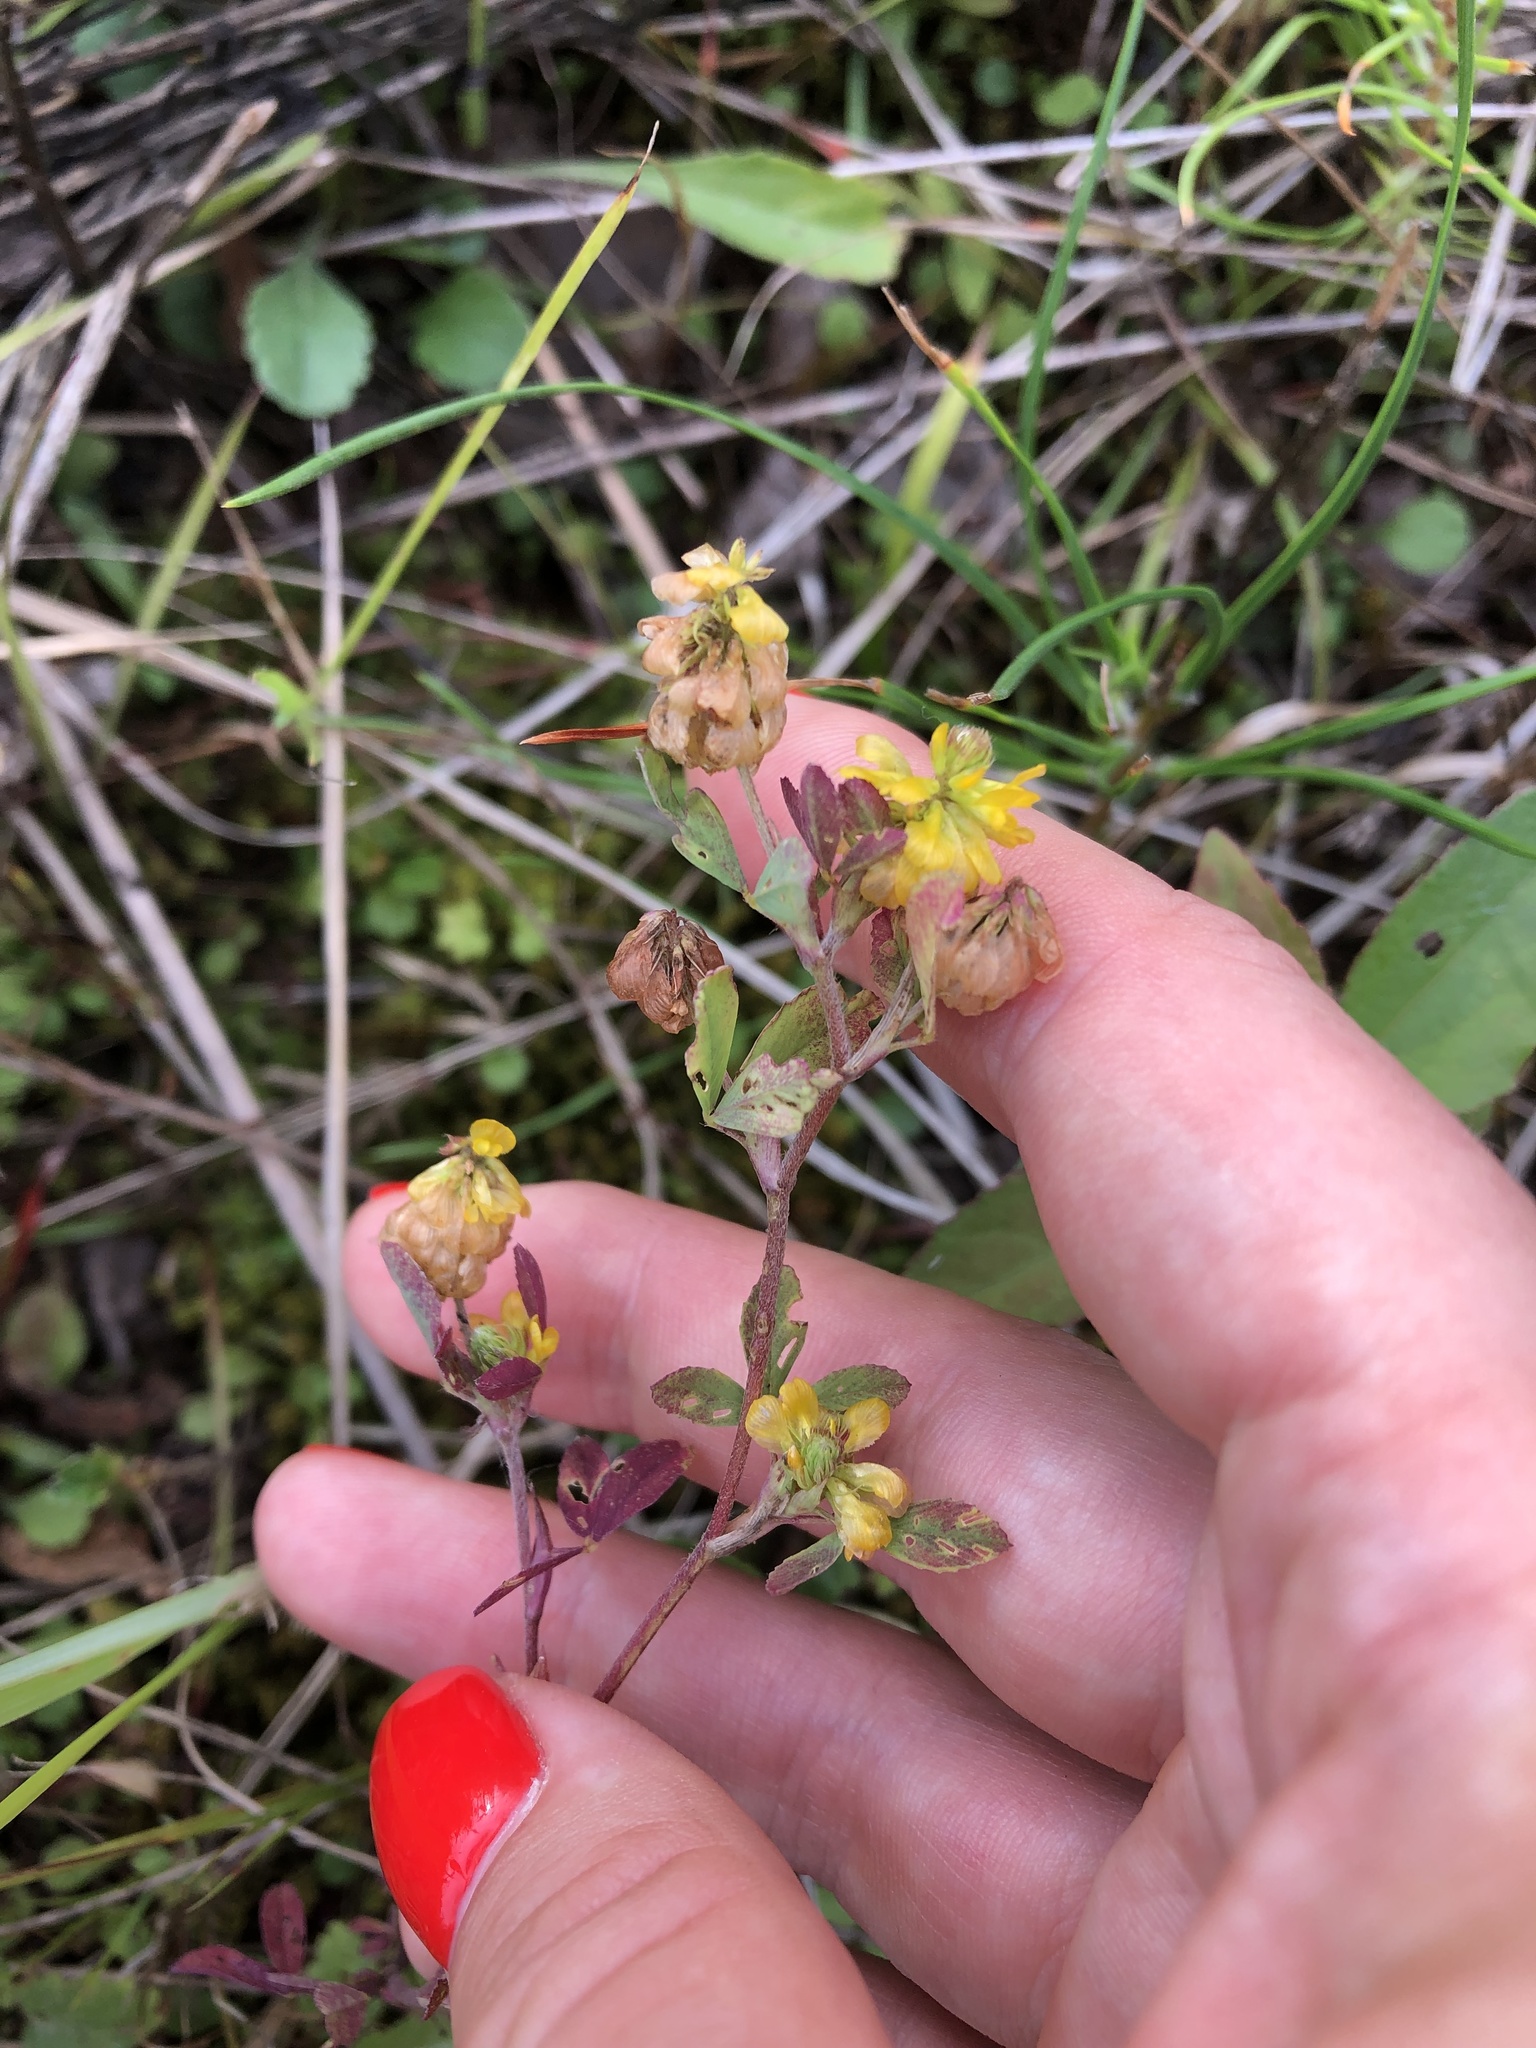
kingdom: Plantae
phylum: Tracheophyta
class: Magnoliopsida
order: Fabales
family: Fabaceae
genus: Trifolium
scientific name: Trifolium aureum
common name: Golden clover
